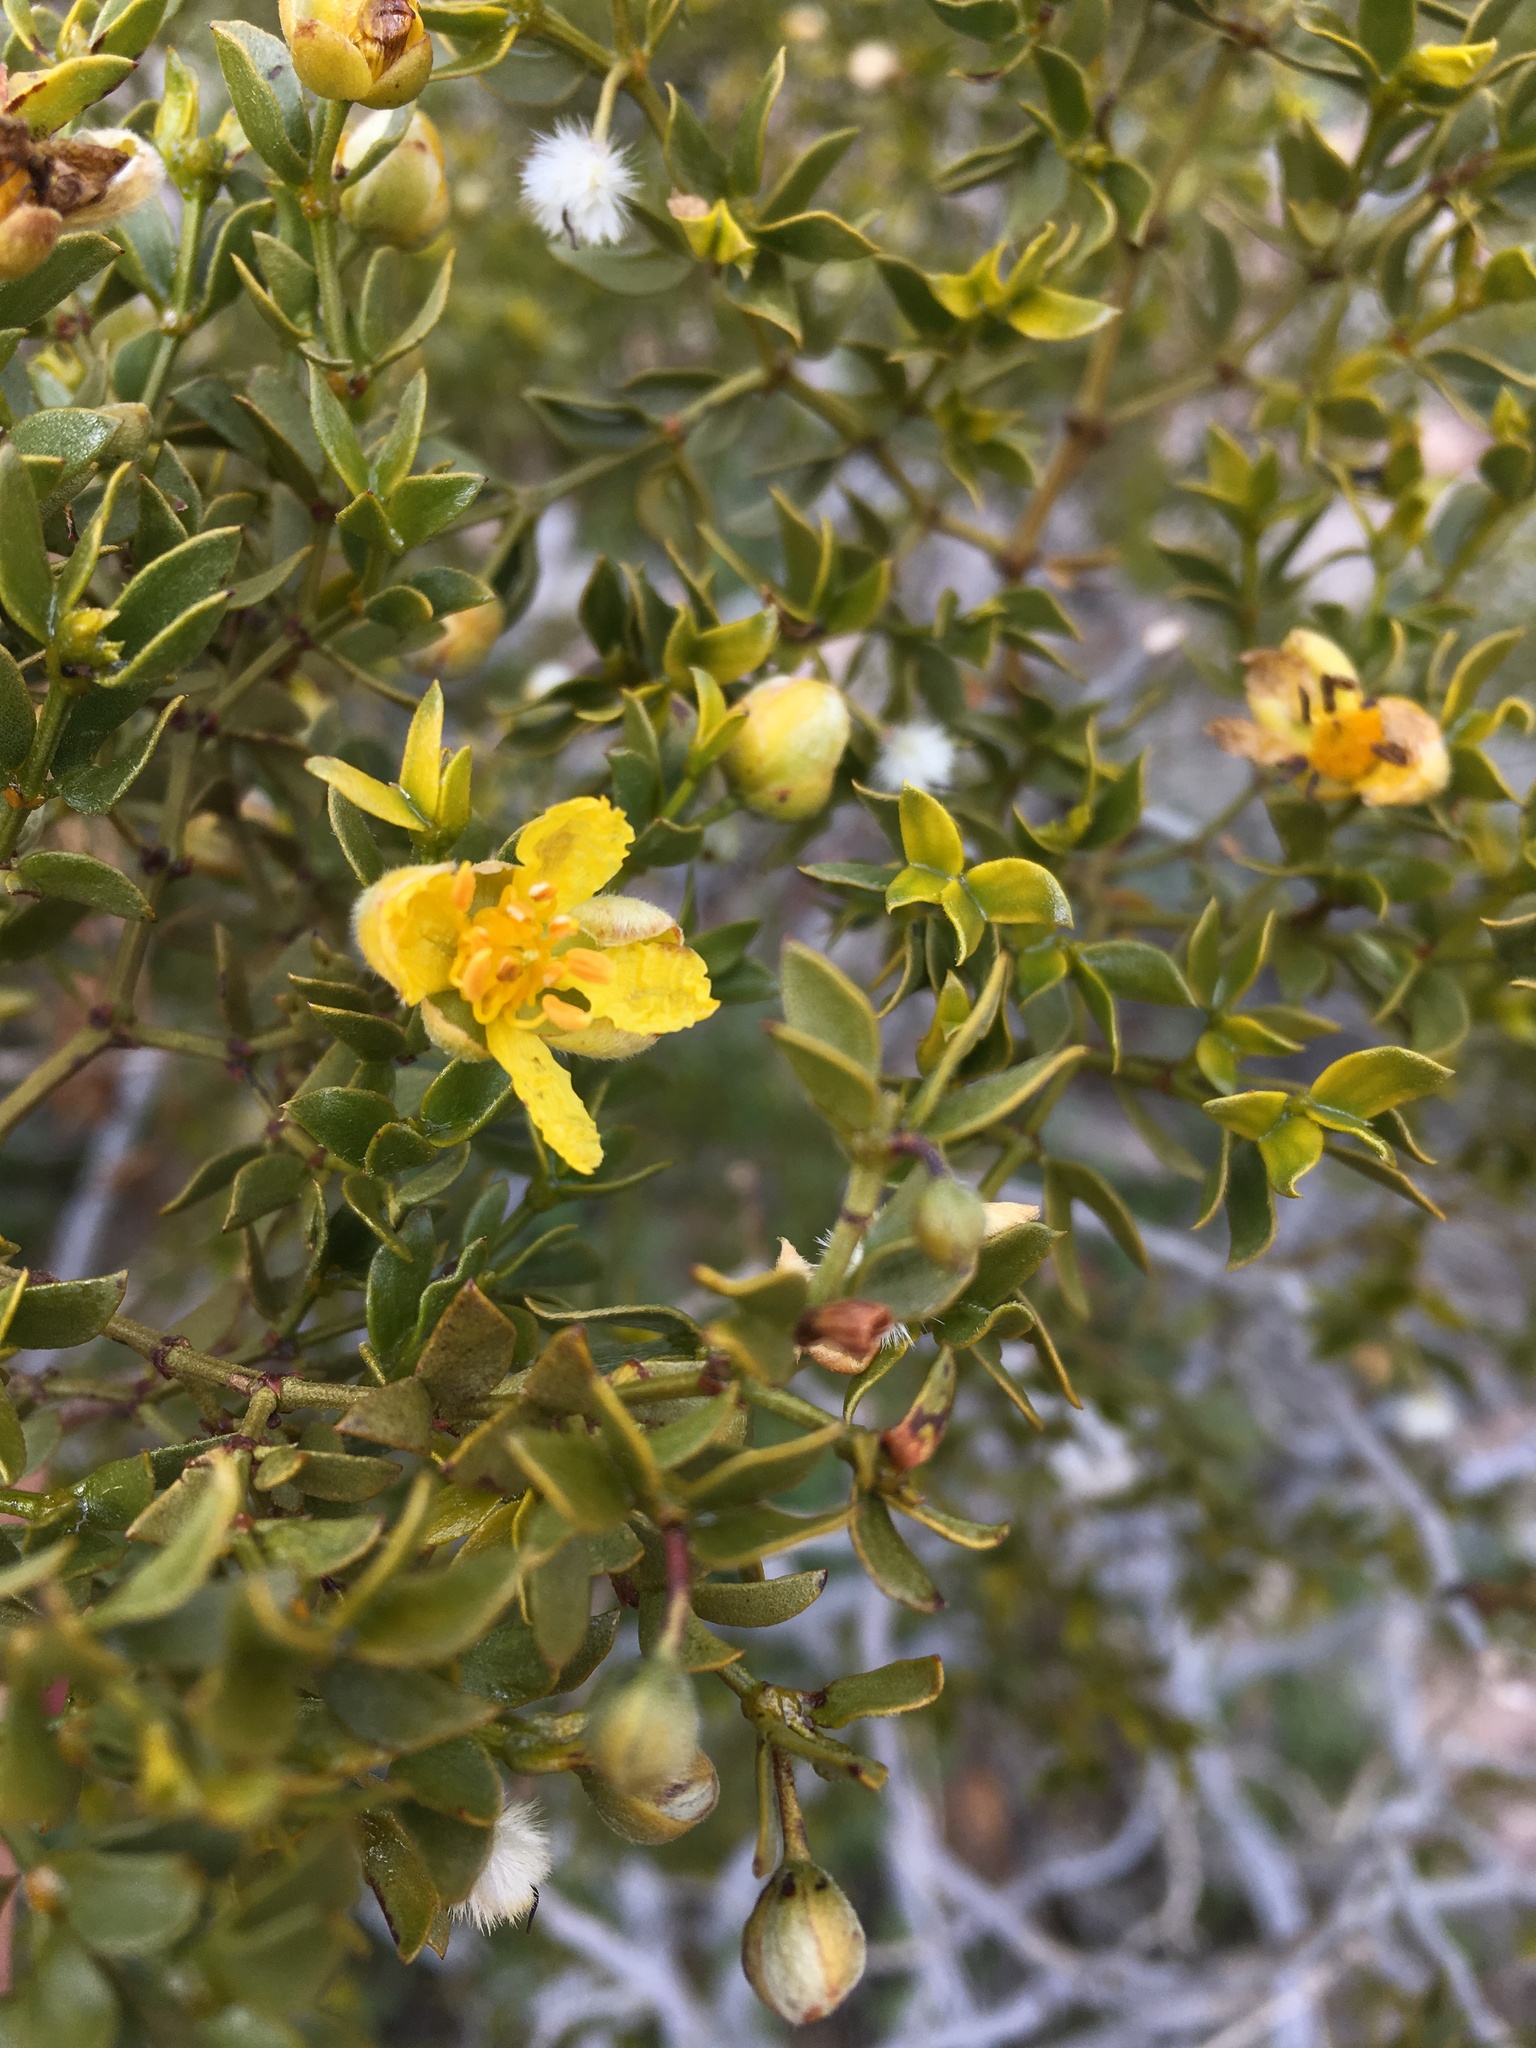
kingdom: Plantae
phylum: Tracheophyta
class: Magnoliopsida
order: Zygophyllales
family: Zygophyllaceae
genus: Larrea
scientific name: Larrea tridentata
